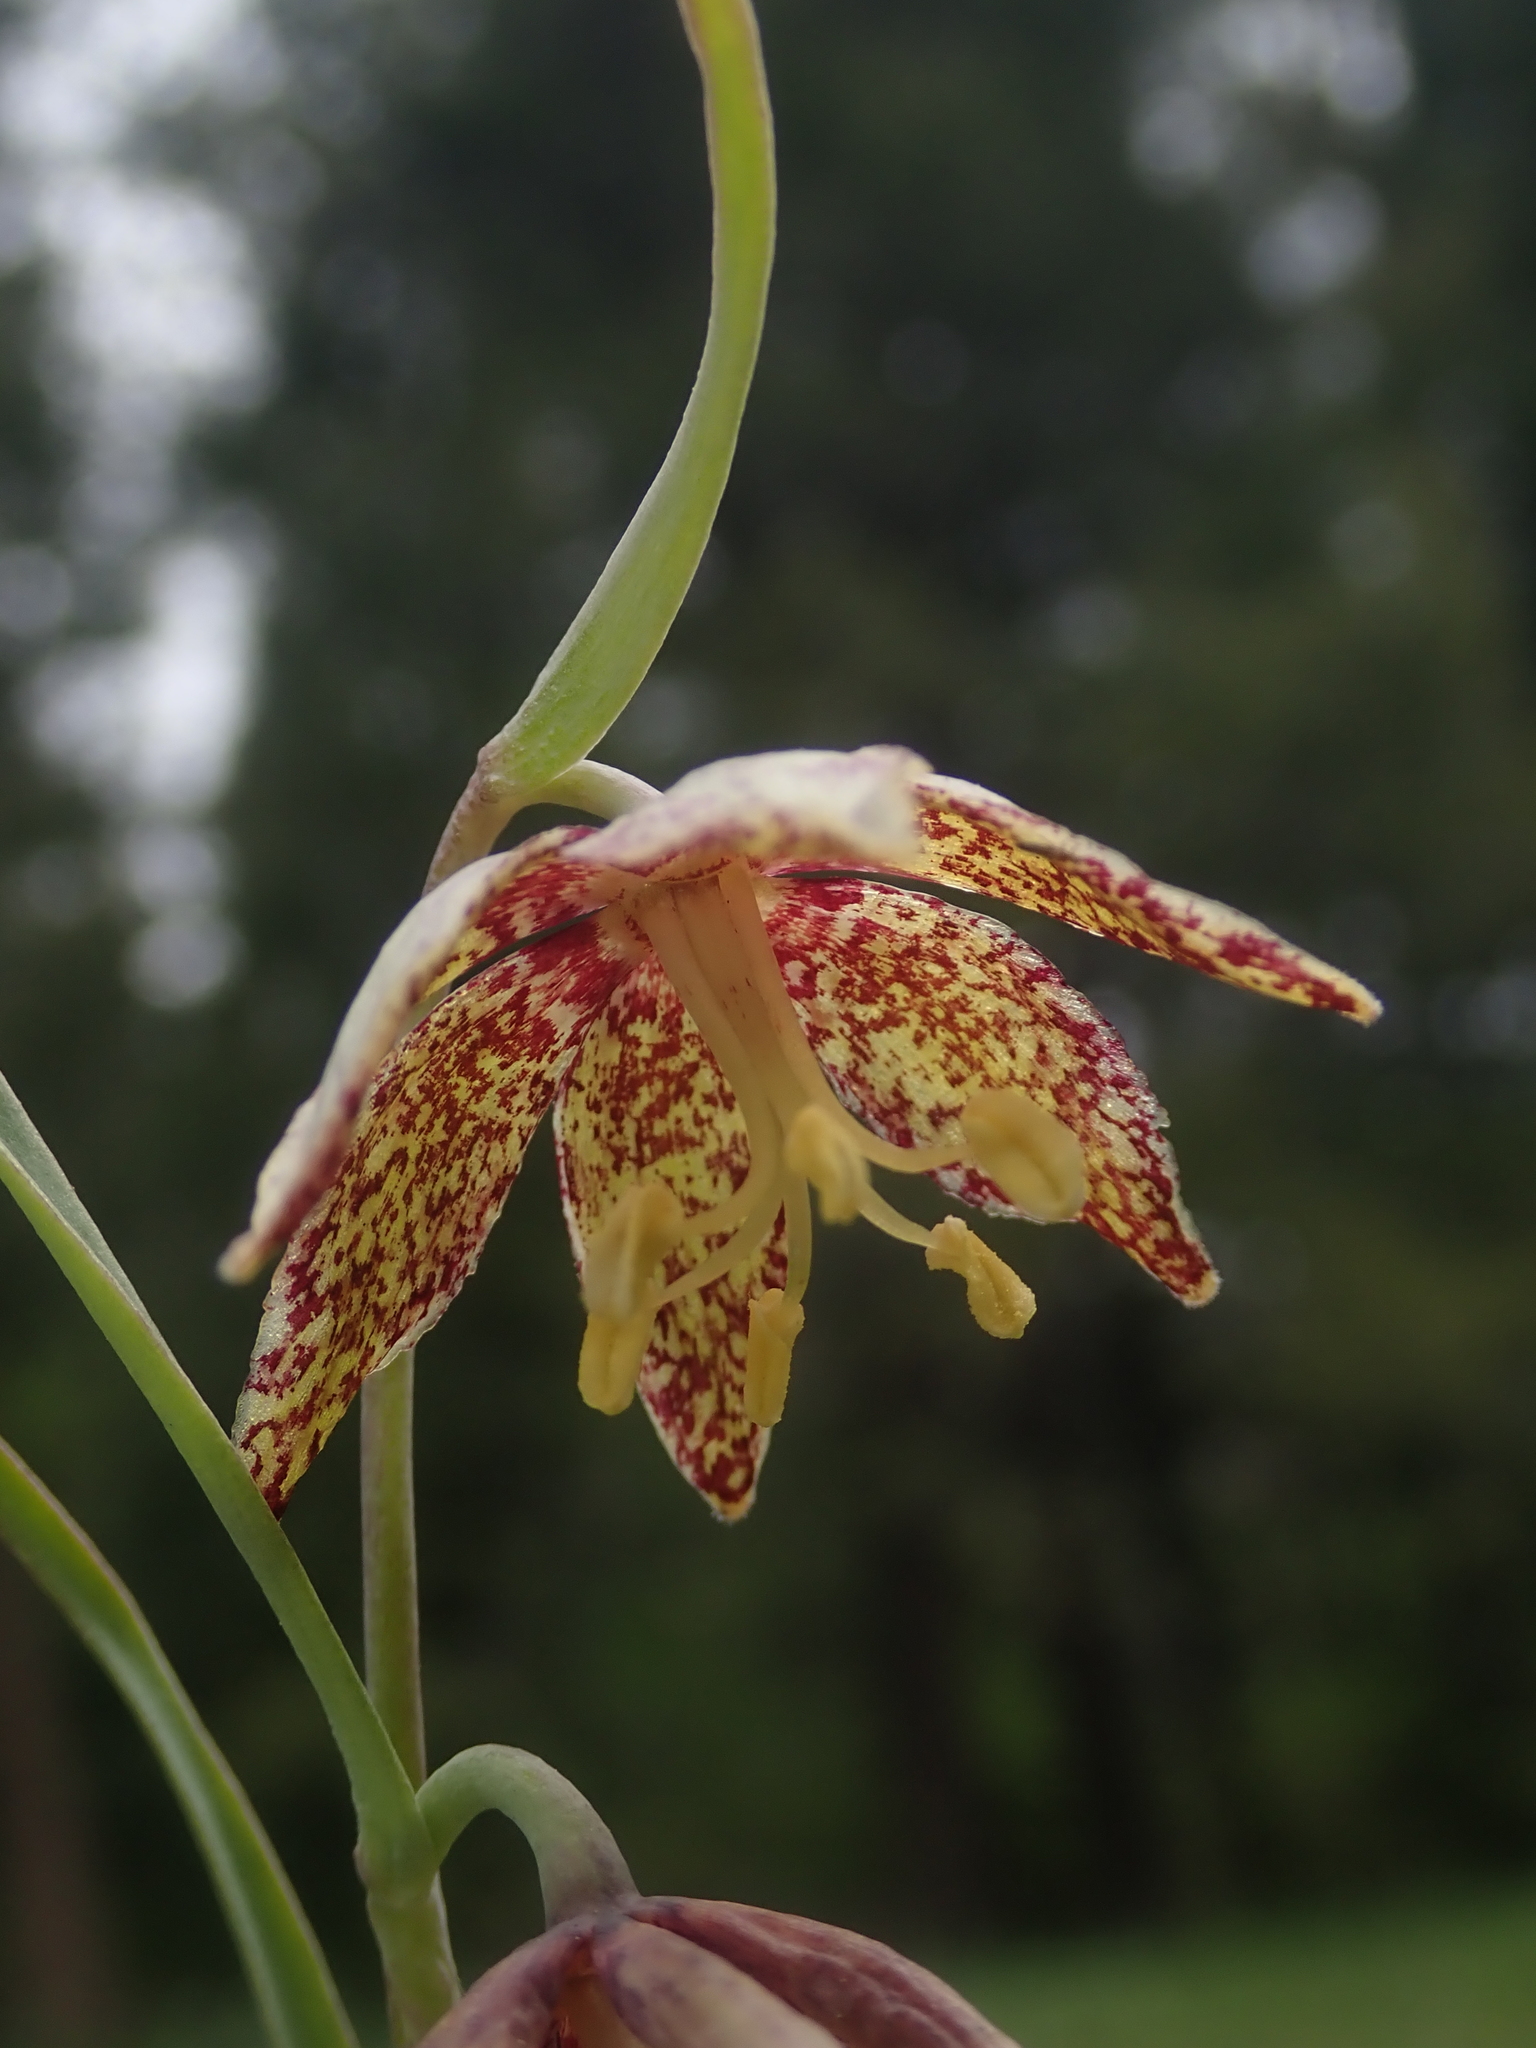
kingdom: Plantae
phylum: Tracheophyta
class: Liliopsida
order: Liliales
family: Liliaceae
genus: Fritillaria
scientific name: Fritillaria atropurpurea
